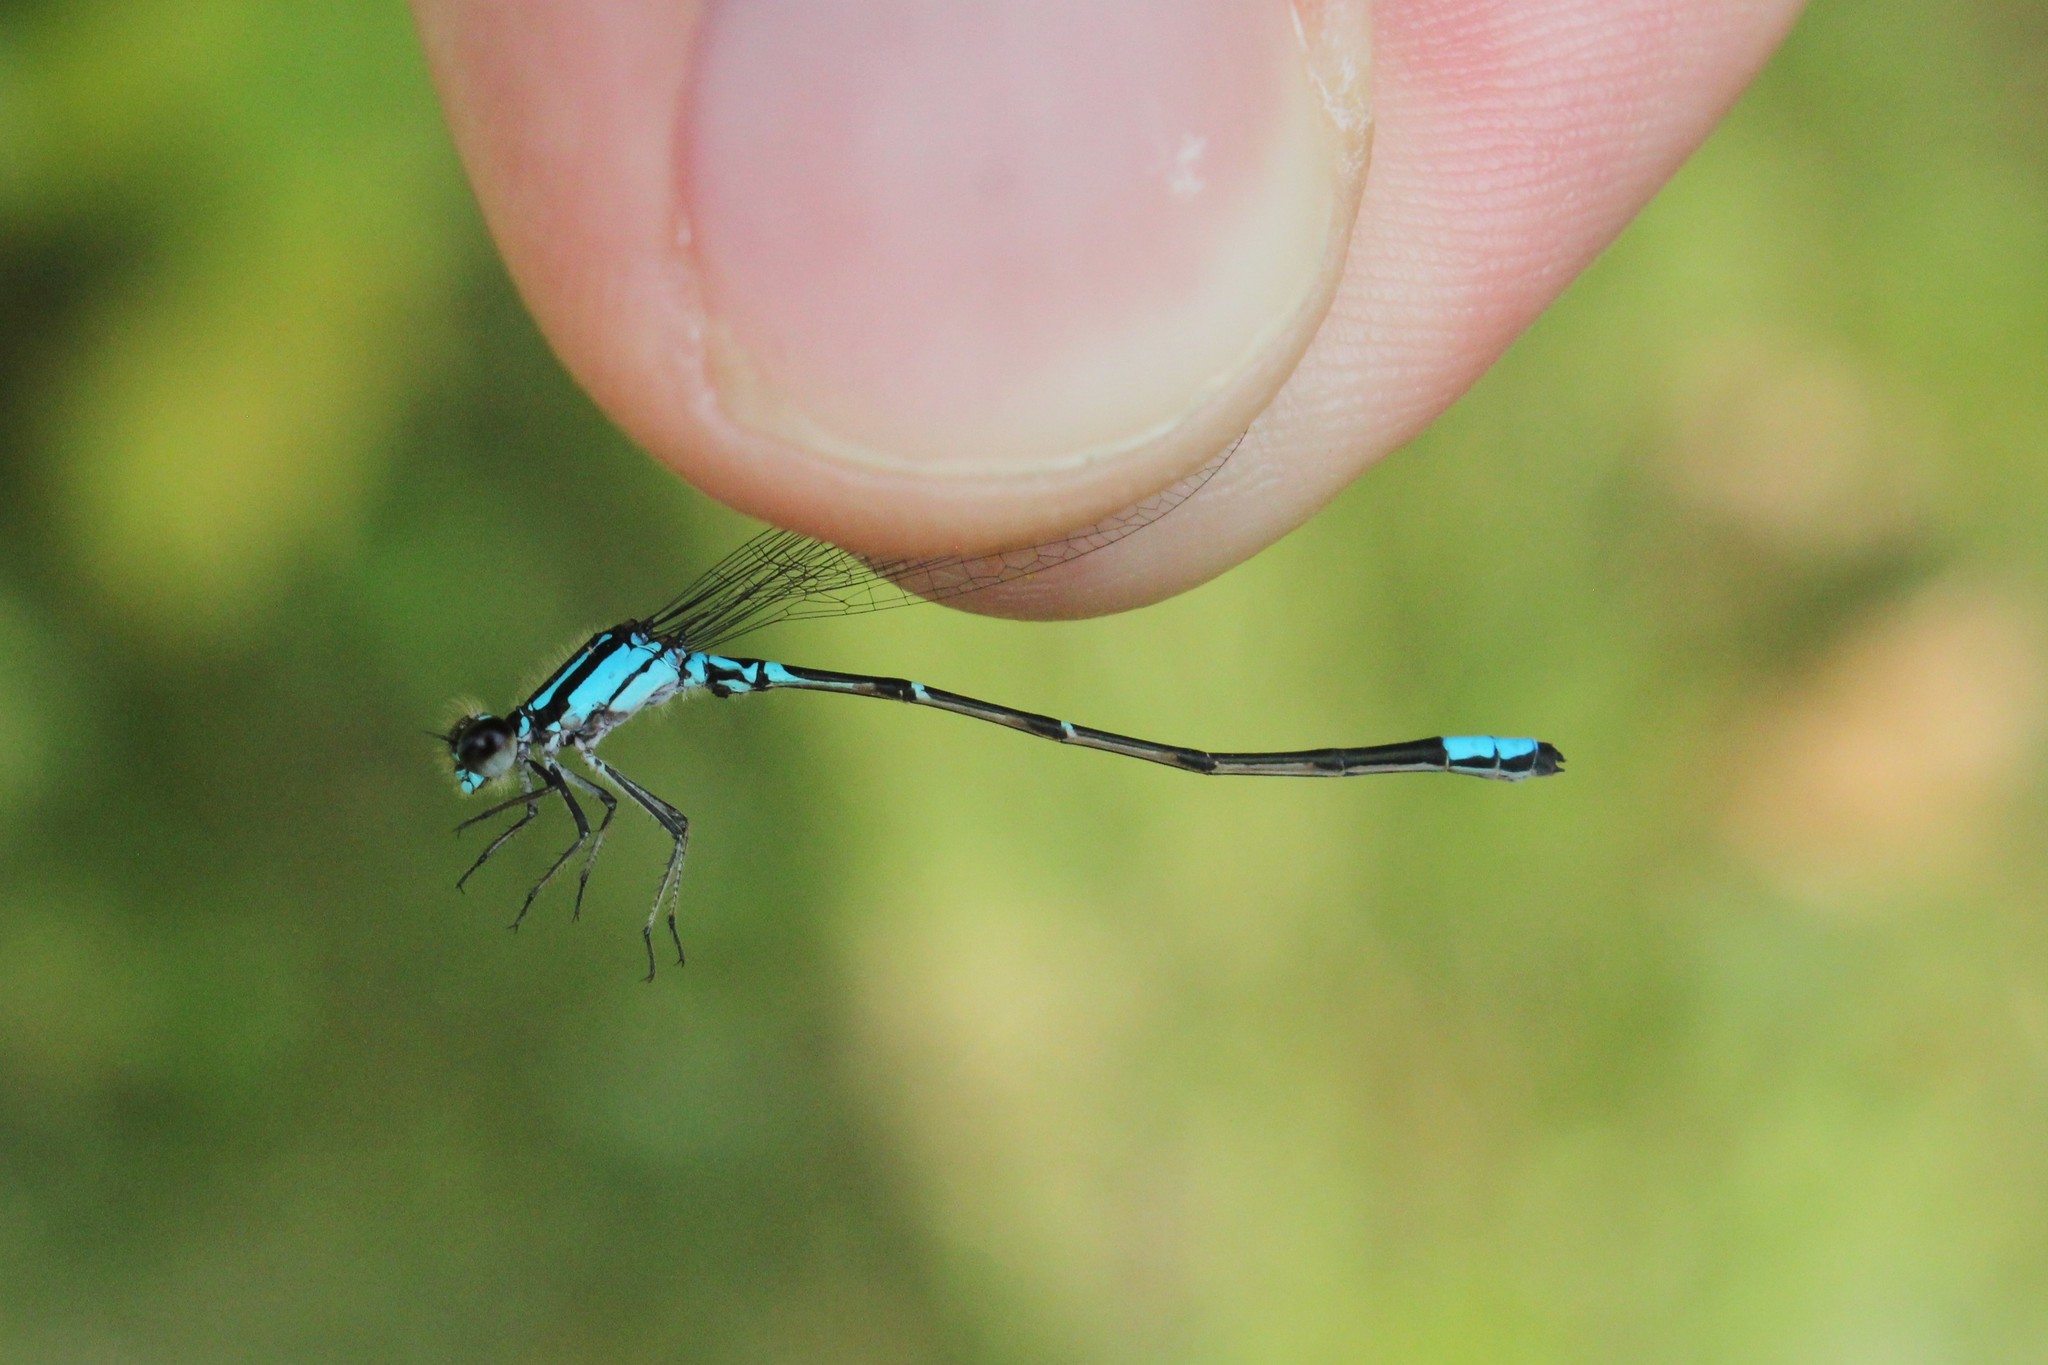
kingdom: Animalia
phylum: Arthropoda
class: Insecta
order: Odonata
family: Coenagrionidae
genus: Enallagma
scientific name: Enallagma geminatum
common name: Skimming bluet
